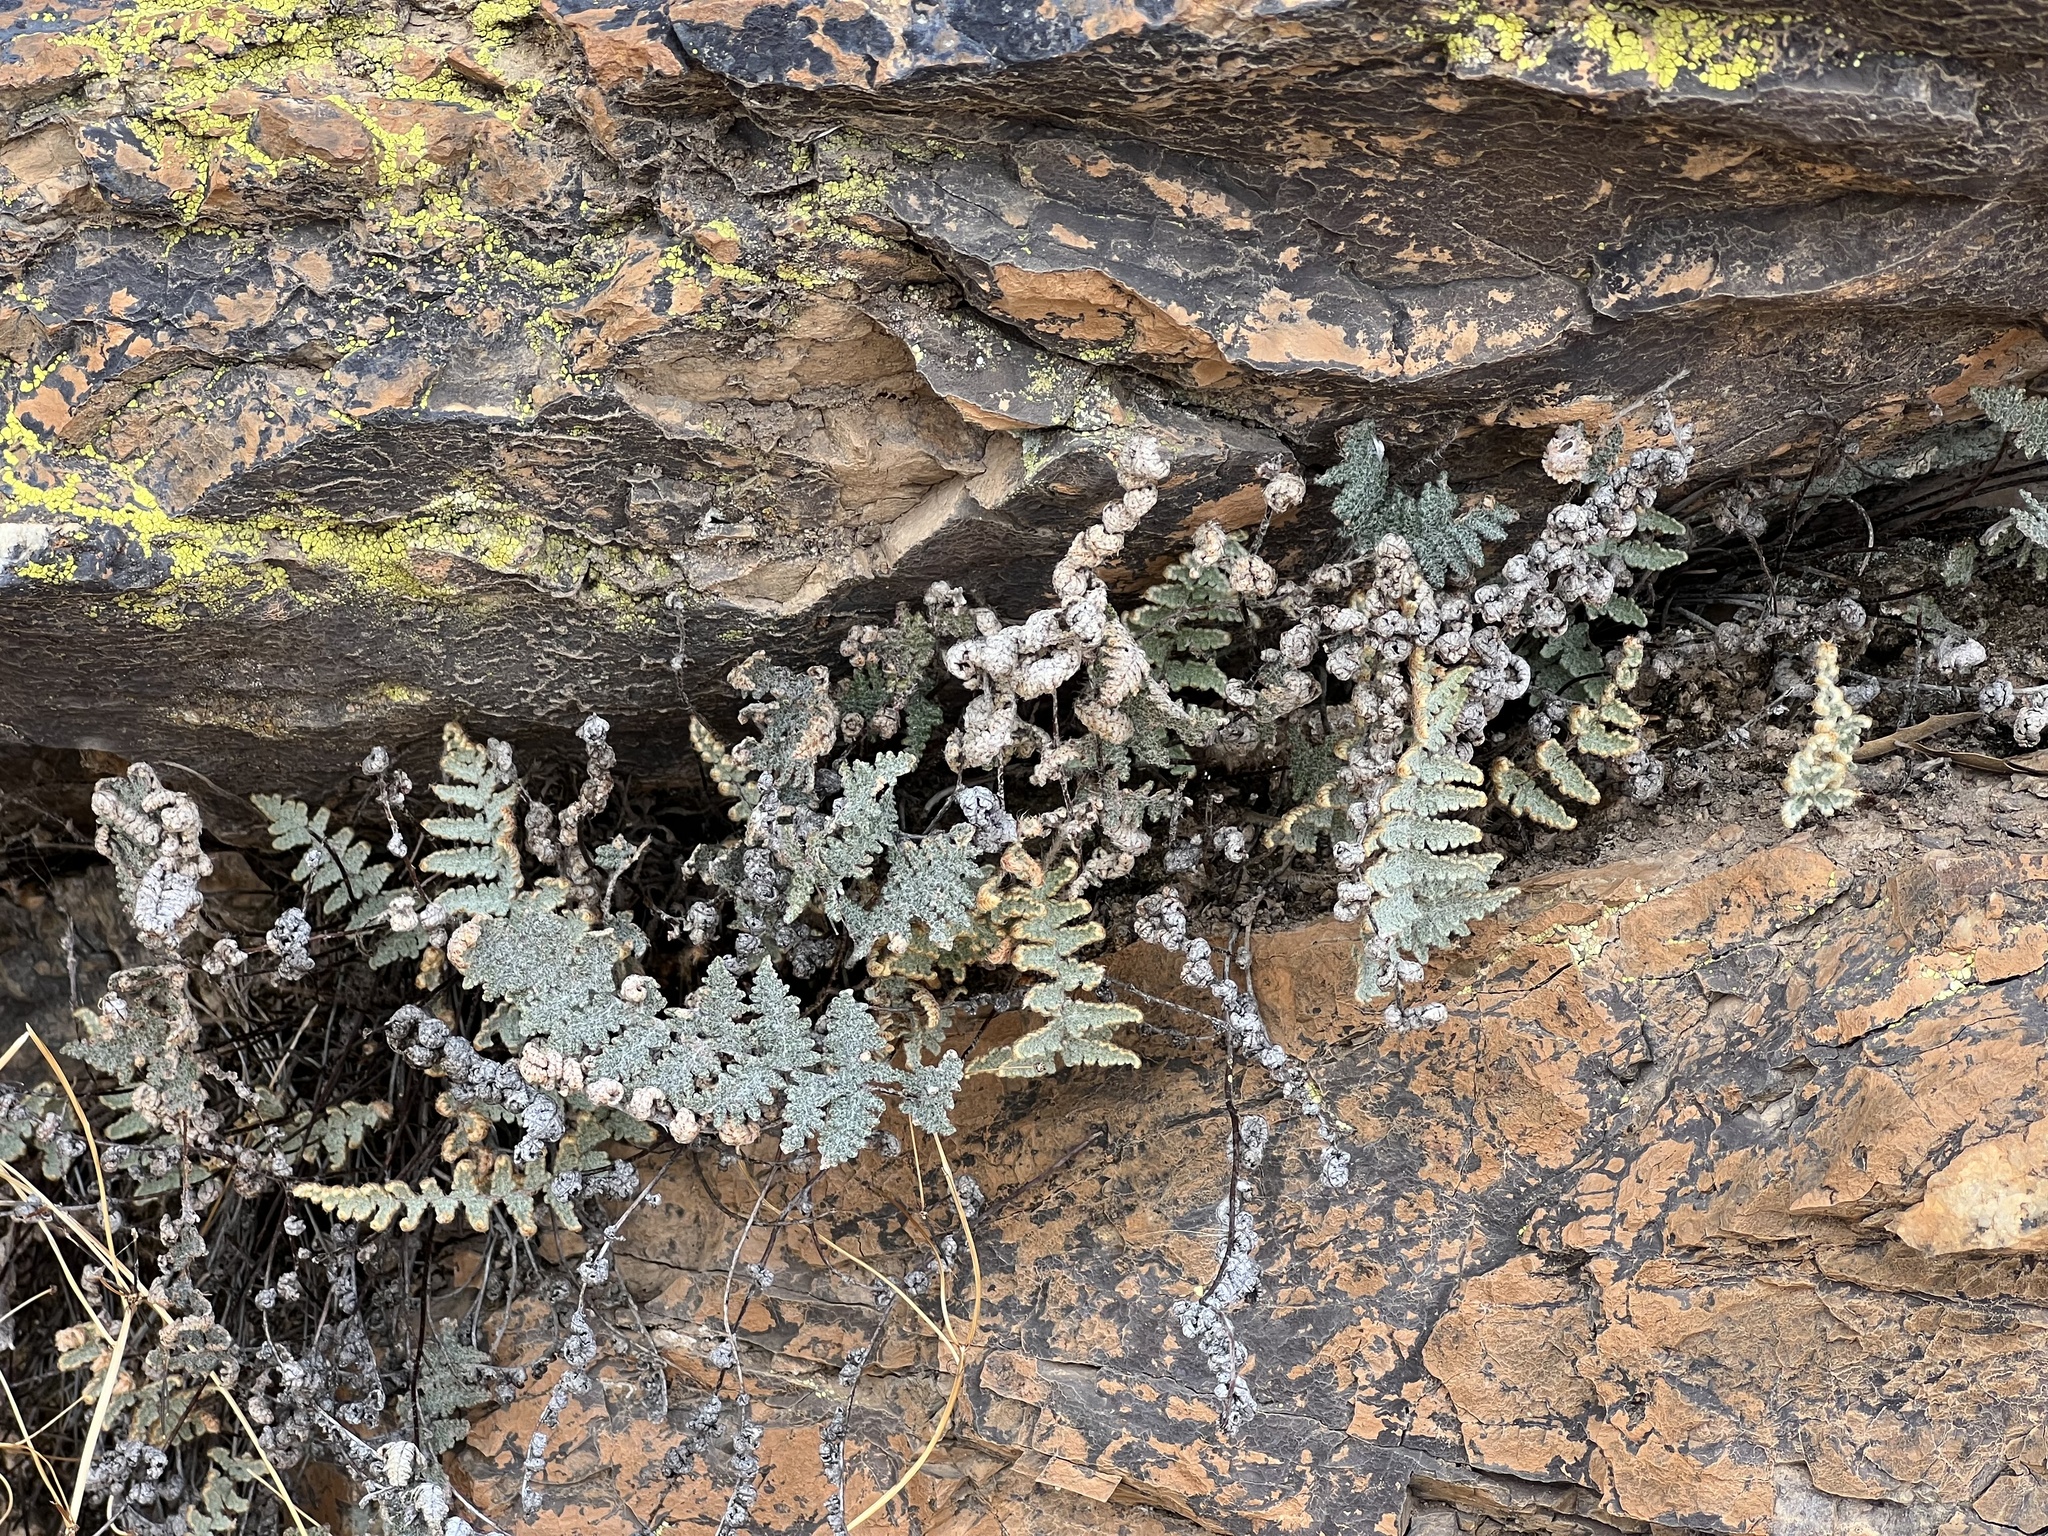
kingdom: Plantae
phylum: Tracheophyta
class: Polypodiopsida
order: Polypodiales
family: Pteridaceae
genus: Myriopteris
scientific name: Myriopteris lindheimeri
